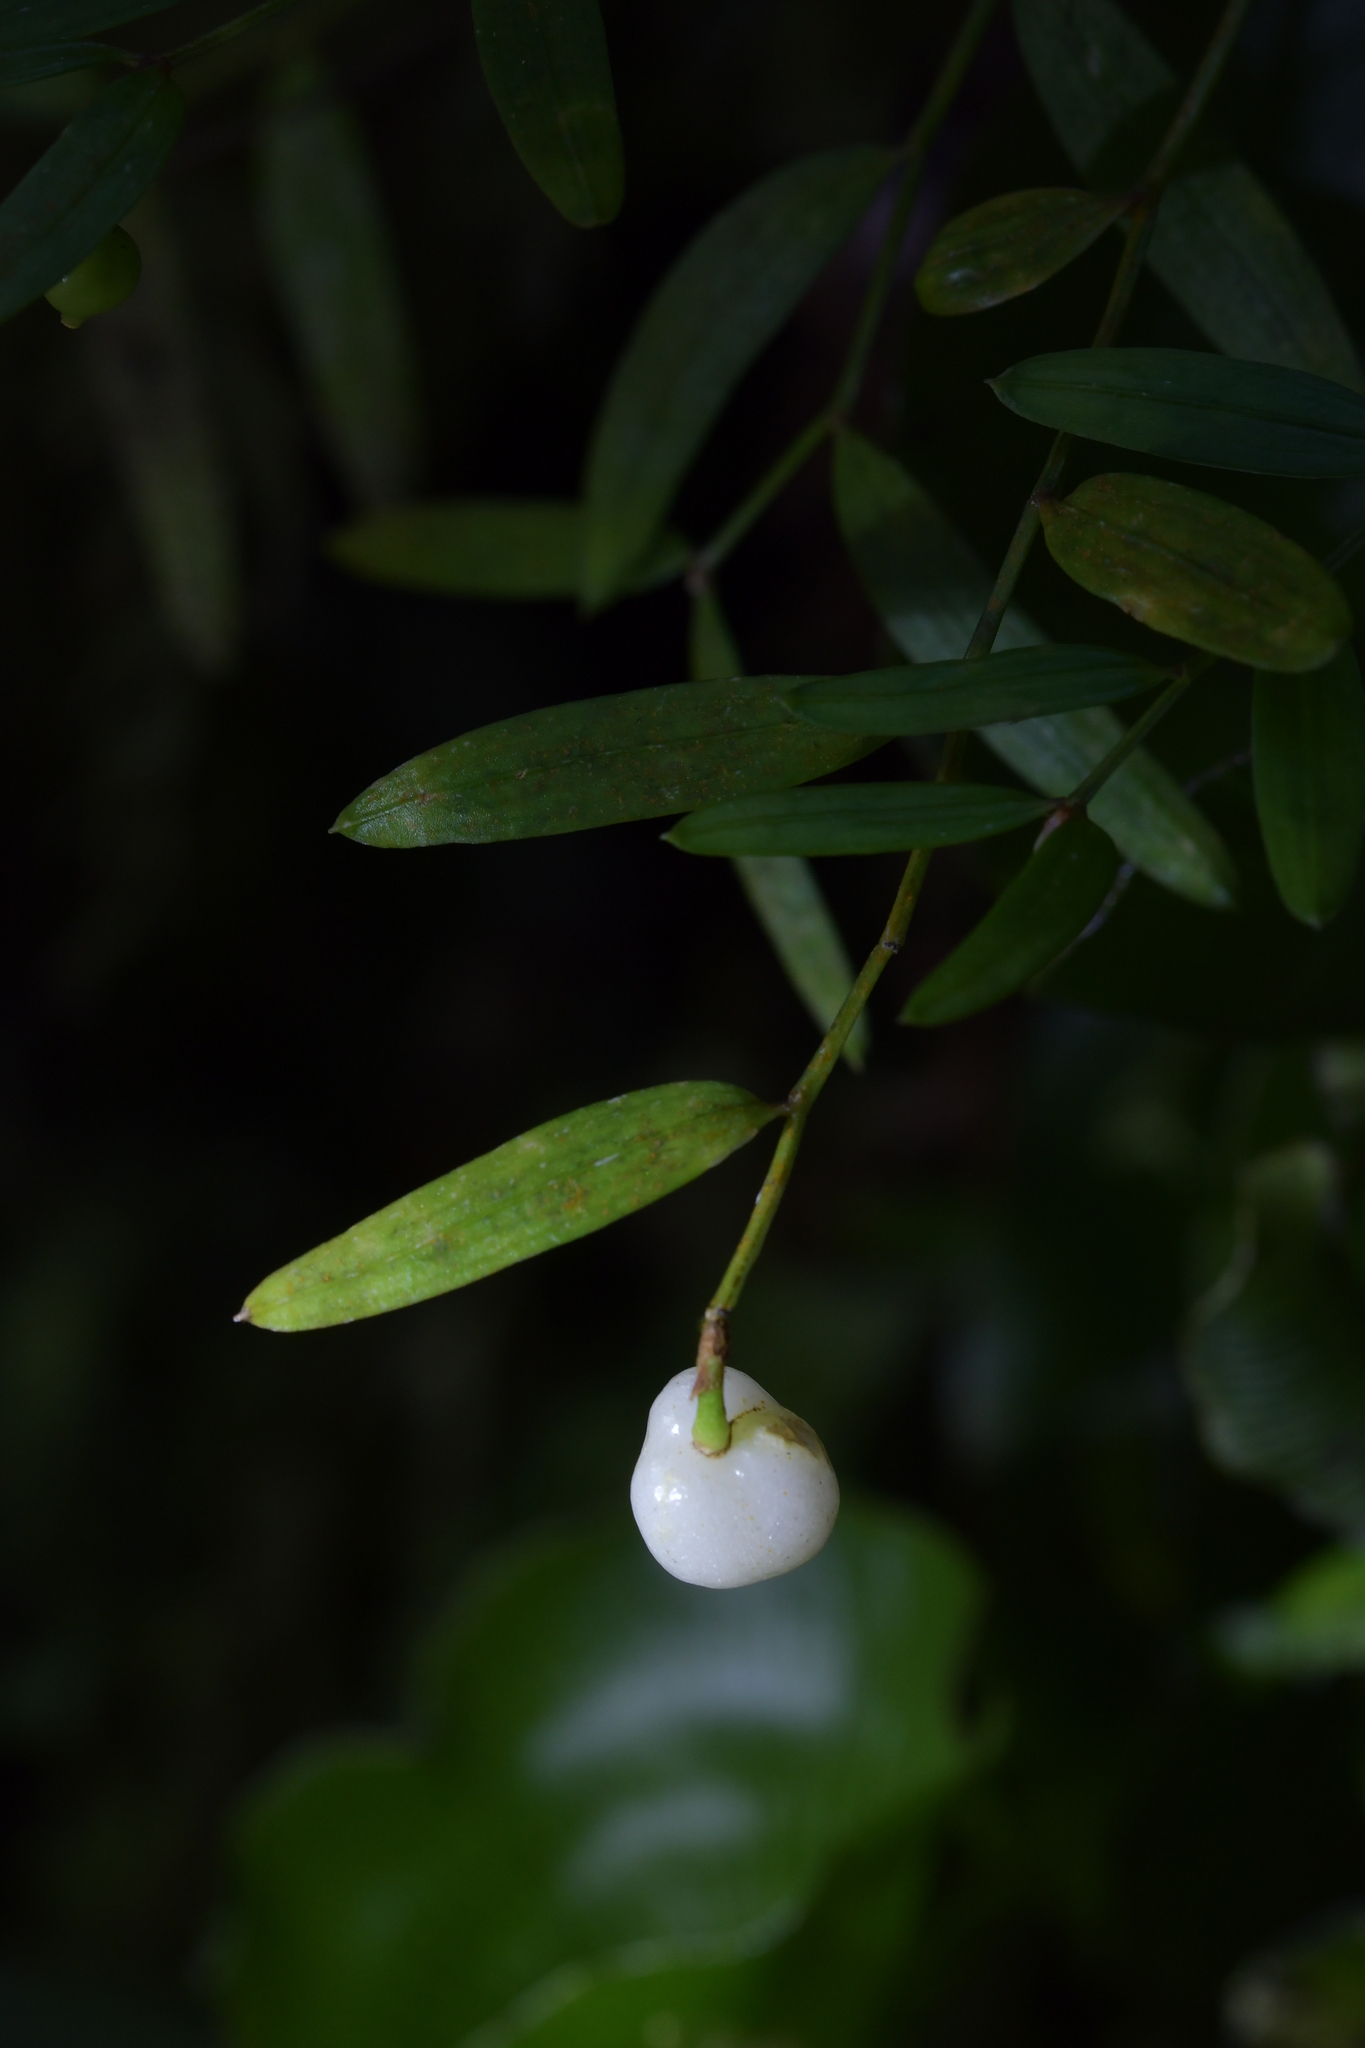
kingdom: Plantae
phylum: Tracheophyta
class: Liliopsida
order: Liliales
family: Alstroemeriaceae
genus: Luzuriaga
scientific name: Luzuriaga parviflora
